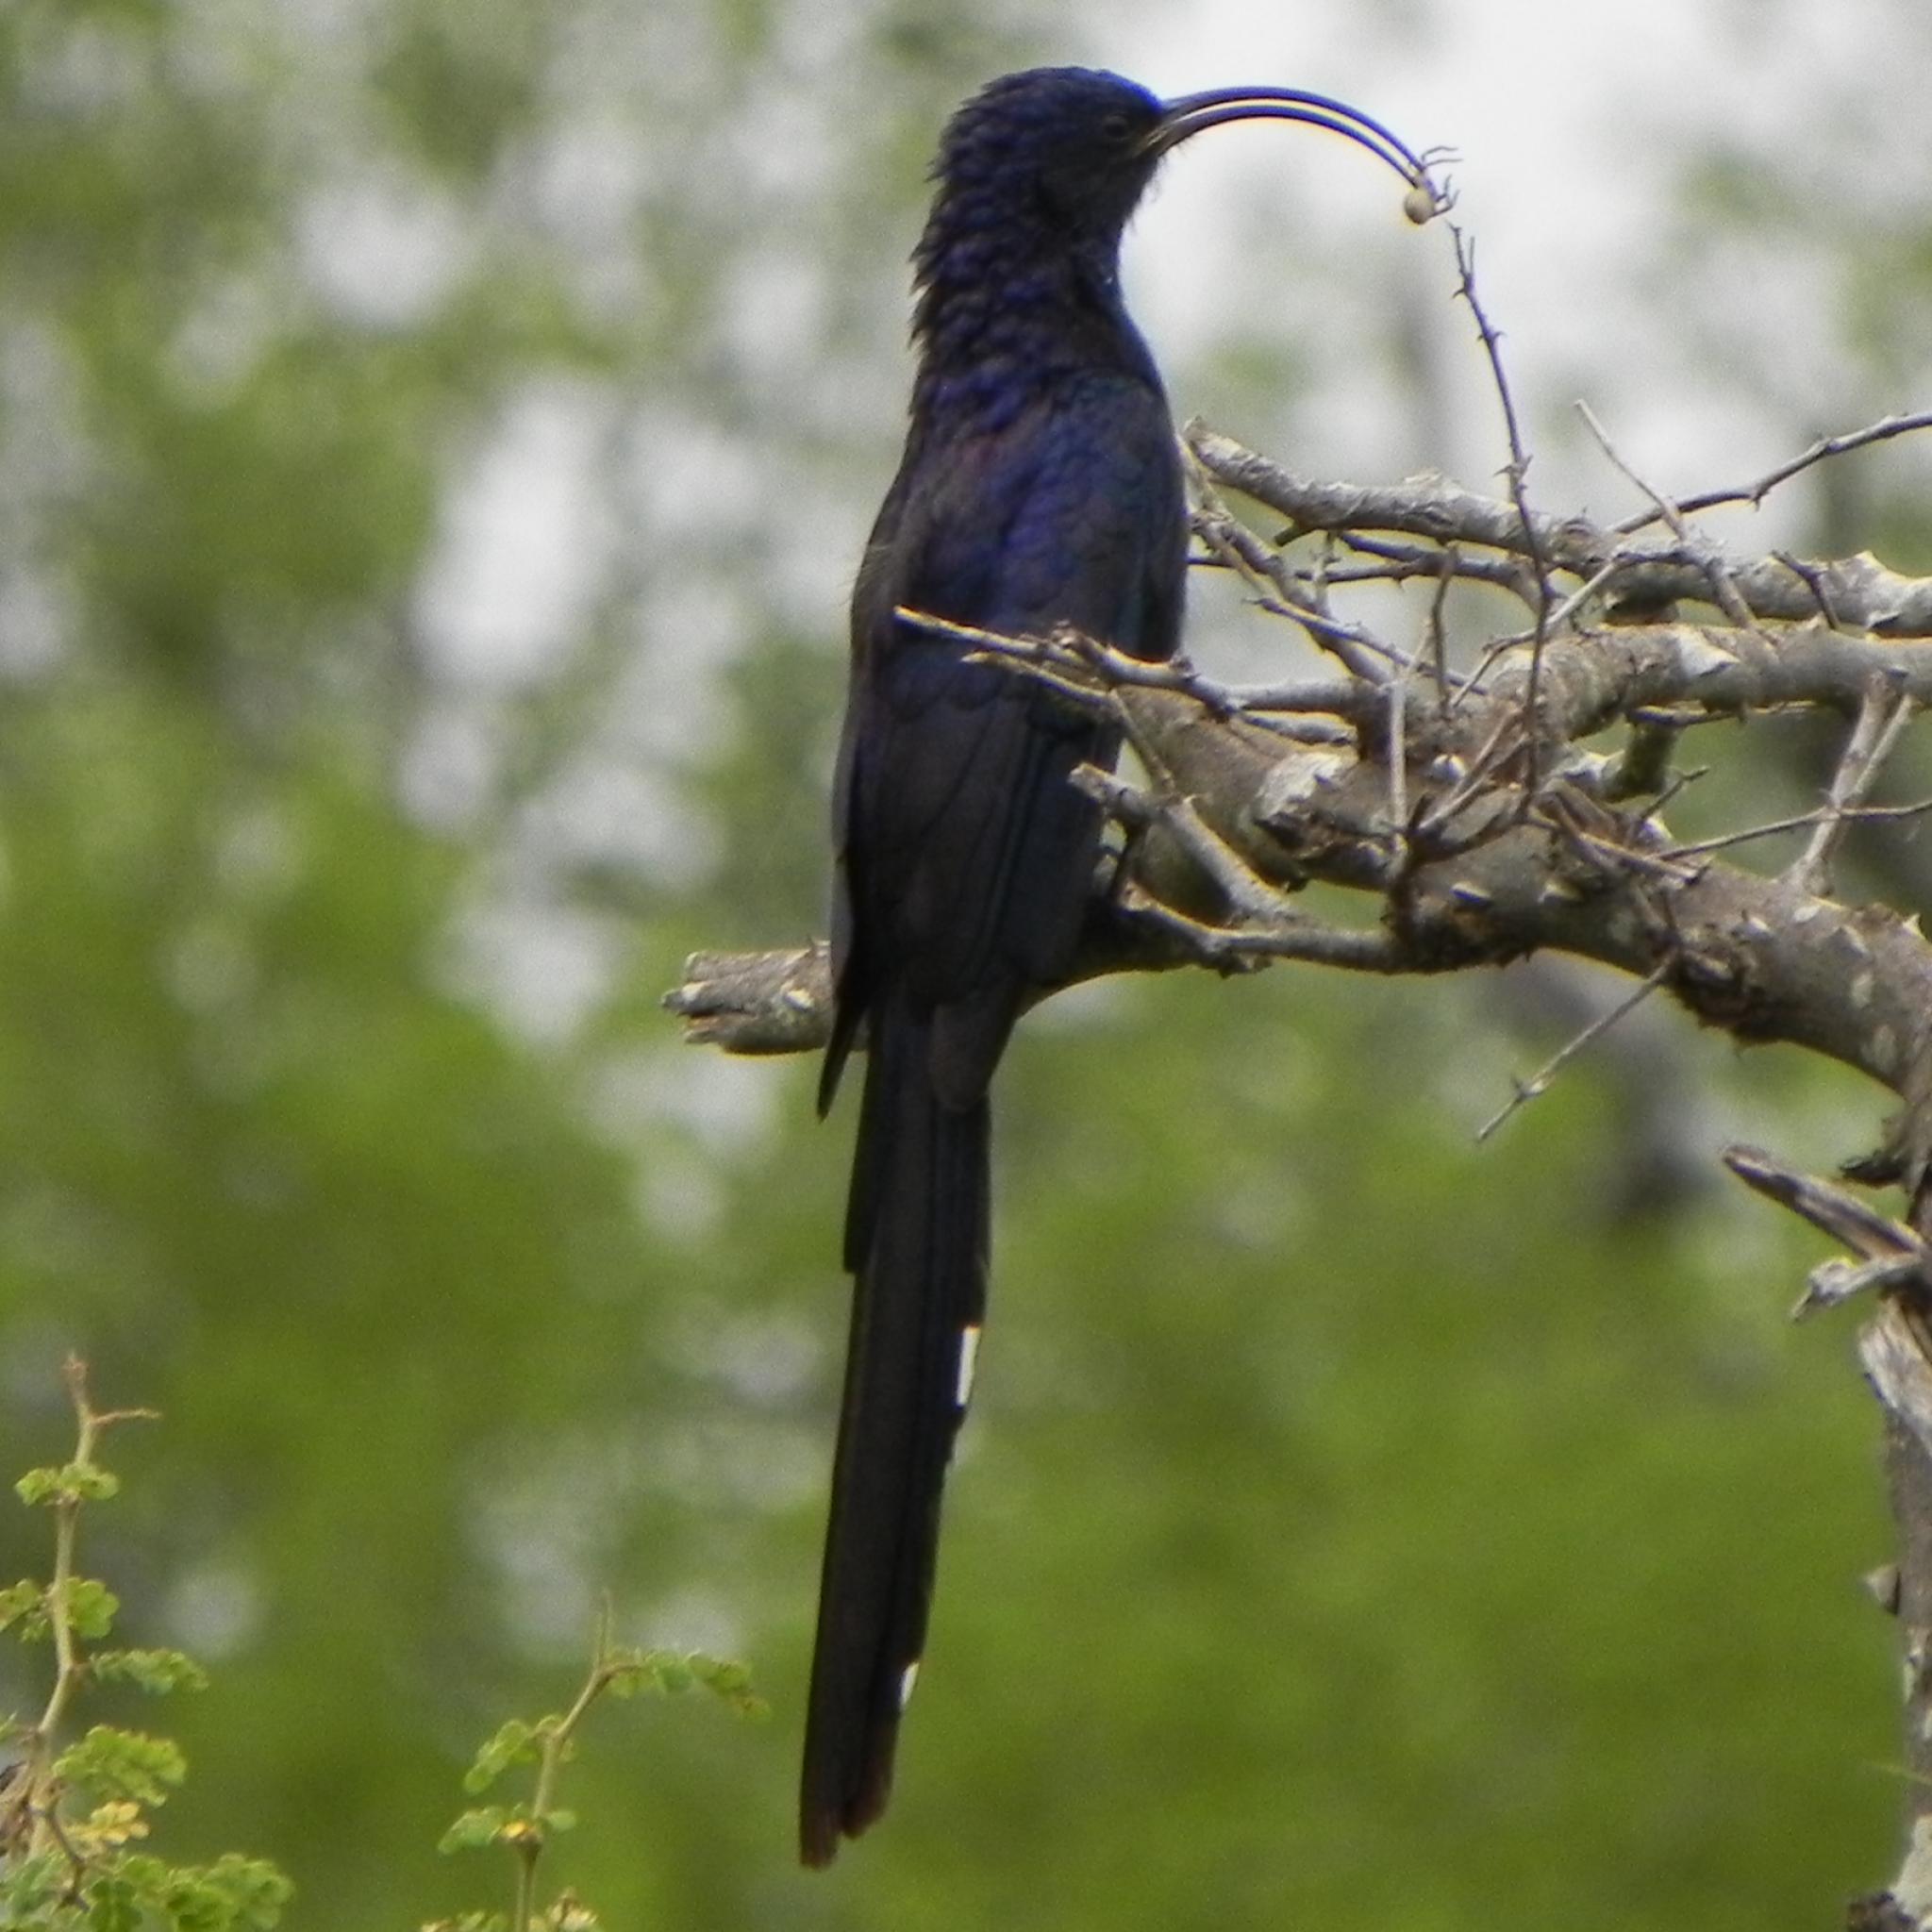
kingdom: Animalia
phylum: Chordata
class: Aves
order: Bucerotiformes
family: Phoeniculidae
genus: Rhinopomastus
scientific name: Rhinopomastus cyanomelas
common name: Common scimitarbill
